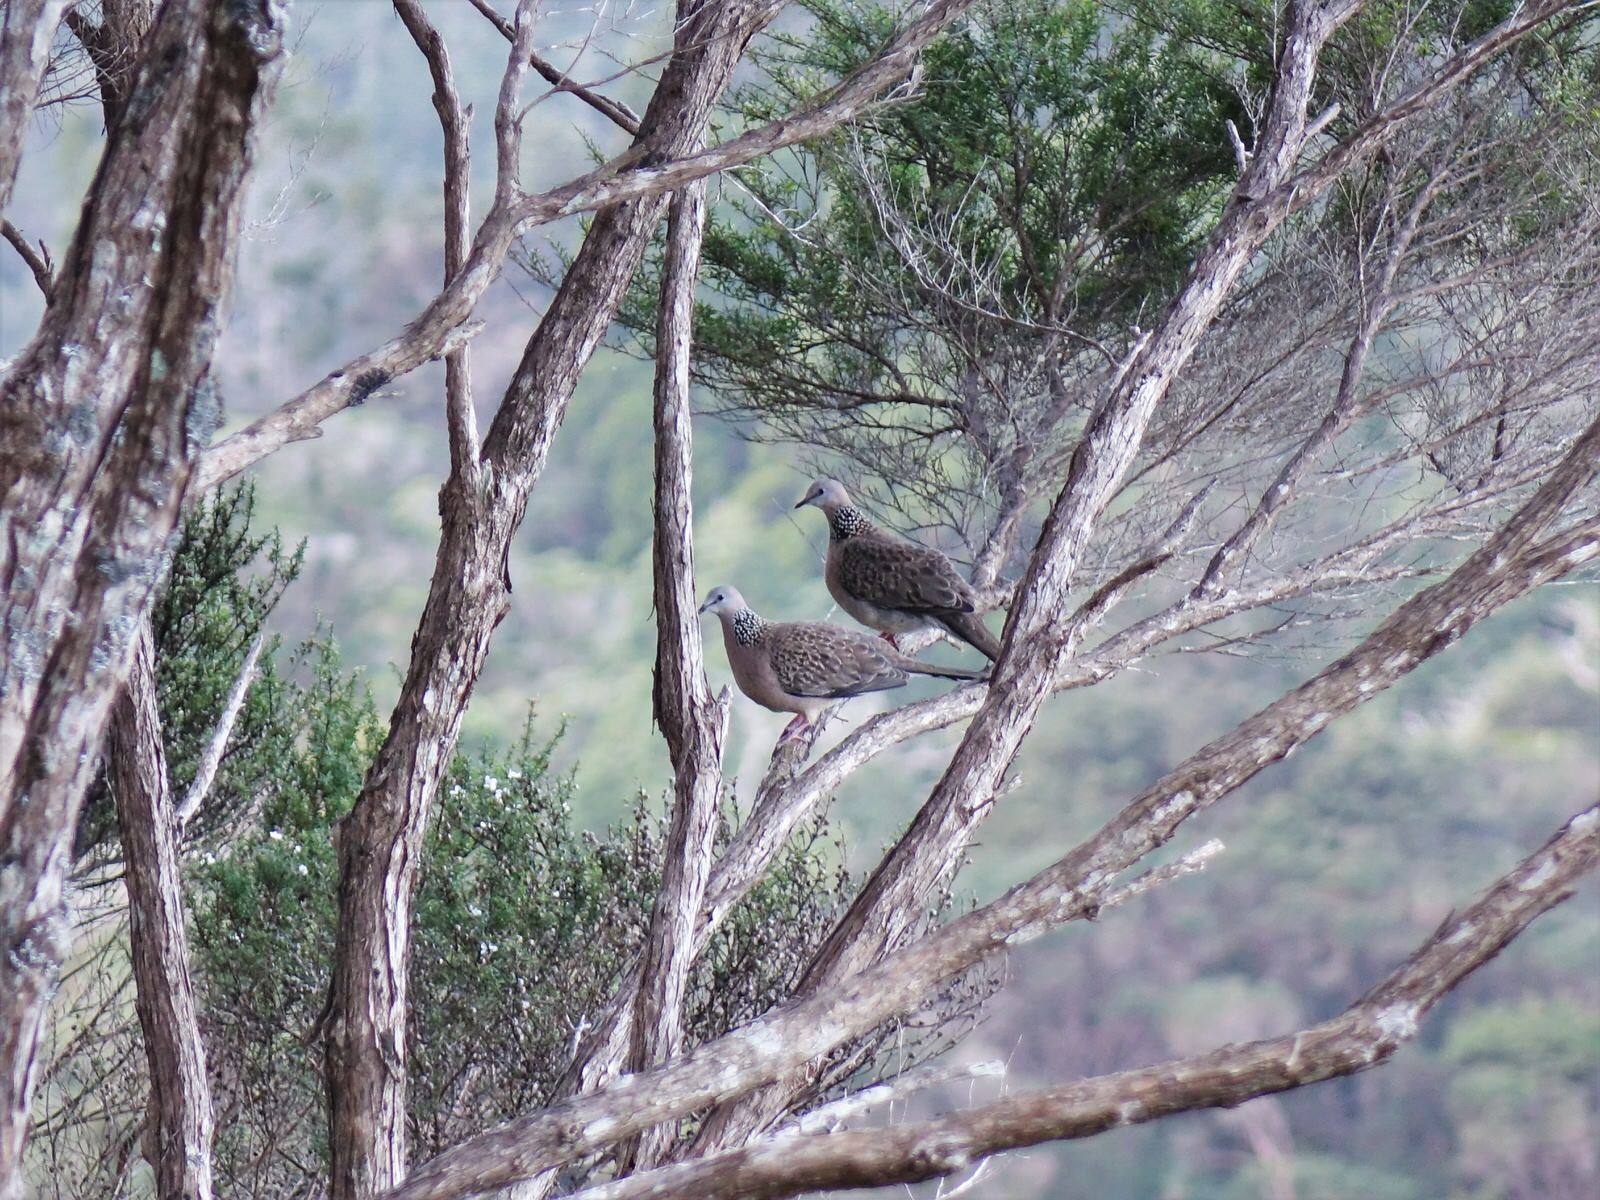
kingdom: Animalia
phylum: Chordata
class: Aves
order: Columbiformes
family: Columbidae
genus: Spilopelia
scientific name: Spilopelia chinensis
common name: Spotted dove
